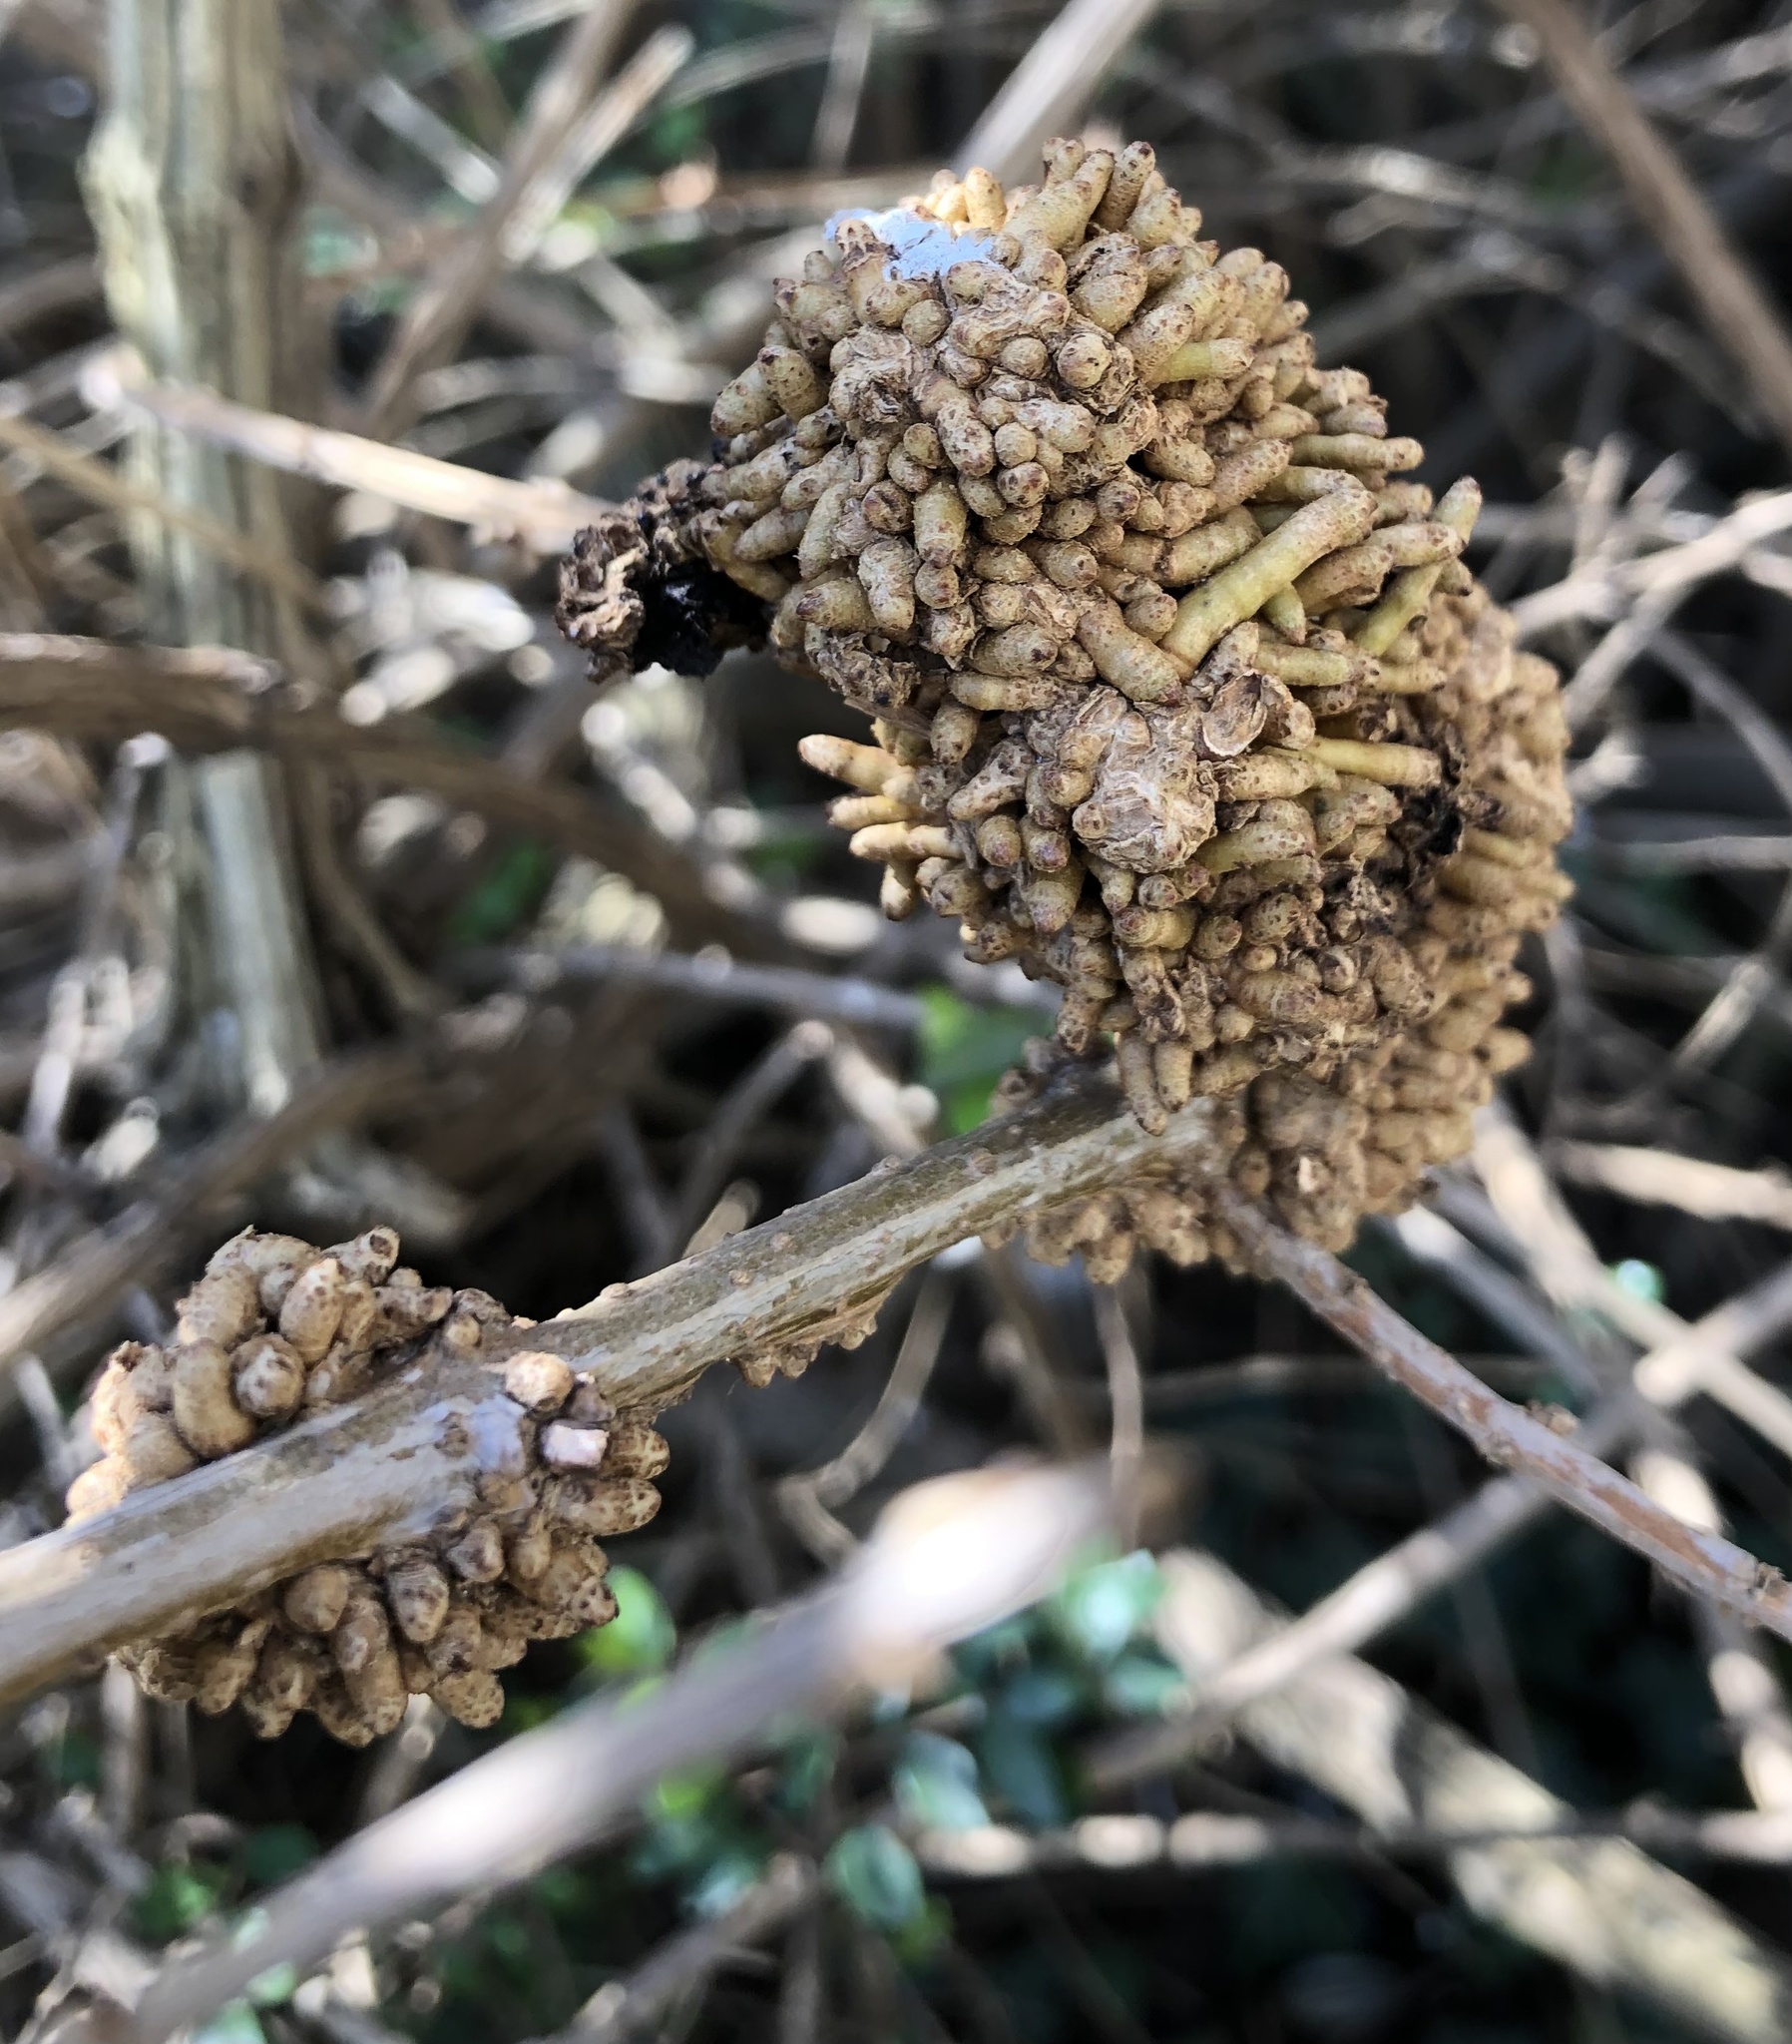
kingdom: Bacteria
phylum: Actinobacteriota
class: Actinomycetia
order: Actinomycetales
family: Nocardiaceae
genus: Rhodococcus
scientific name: Rhodococcus fascians
